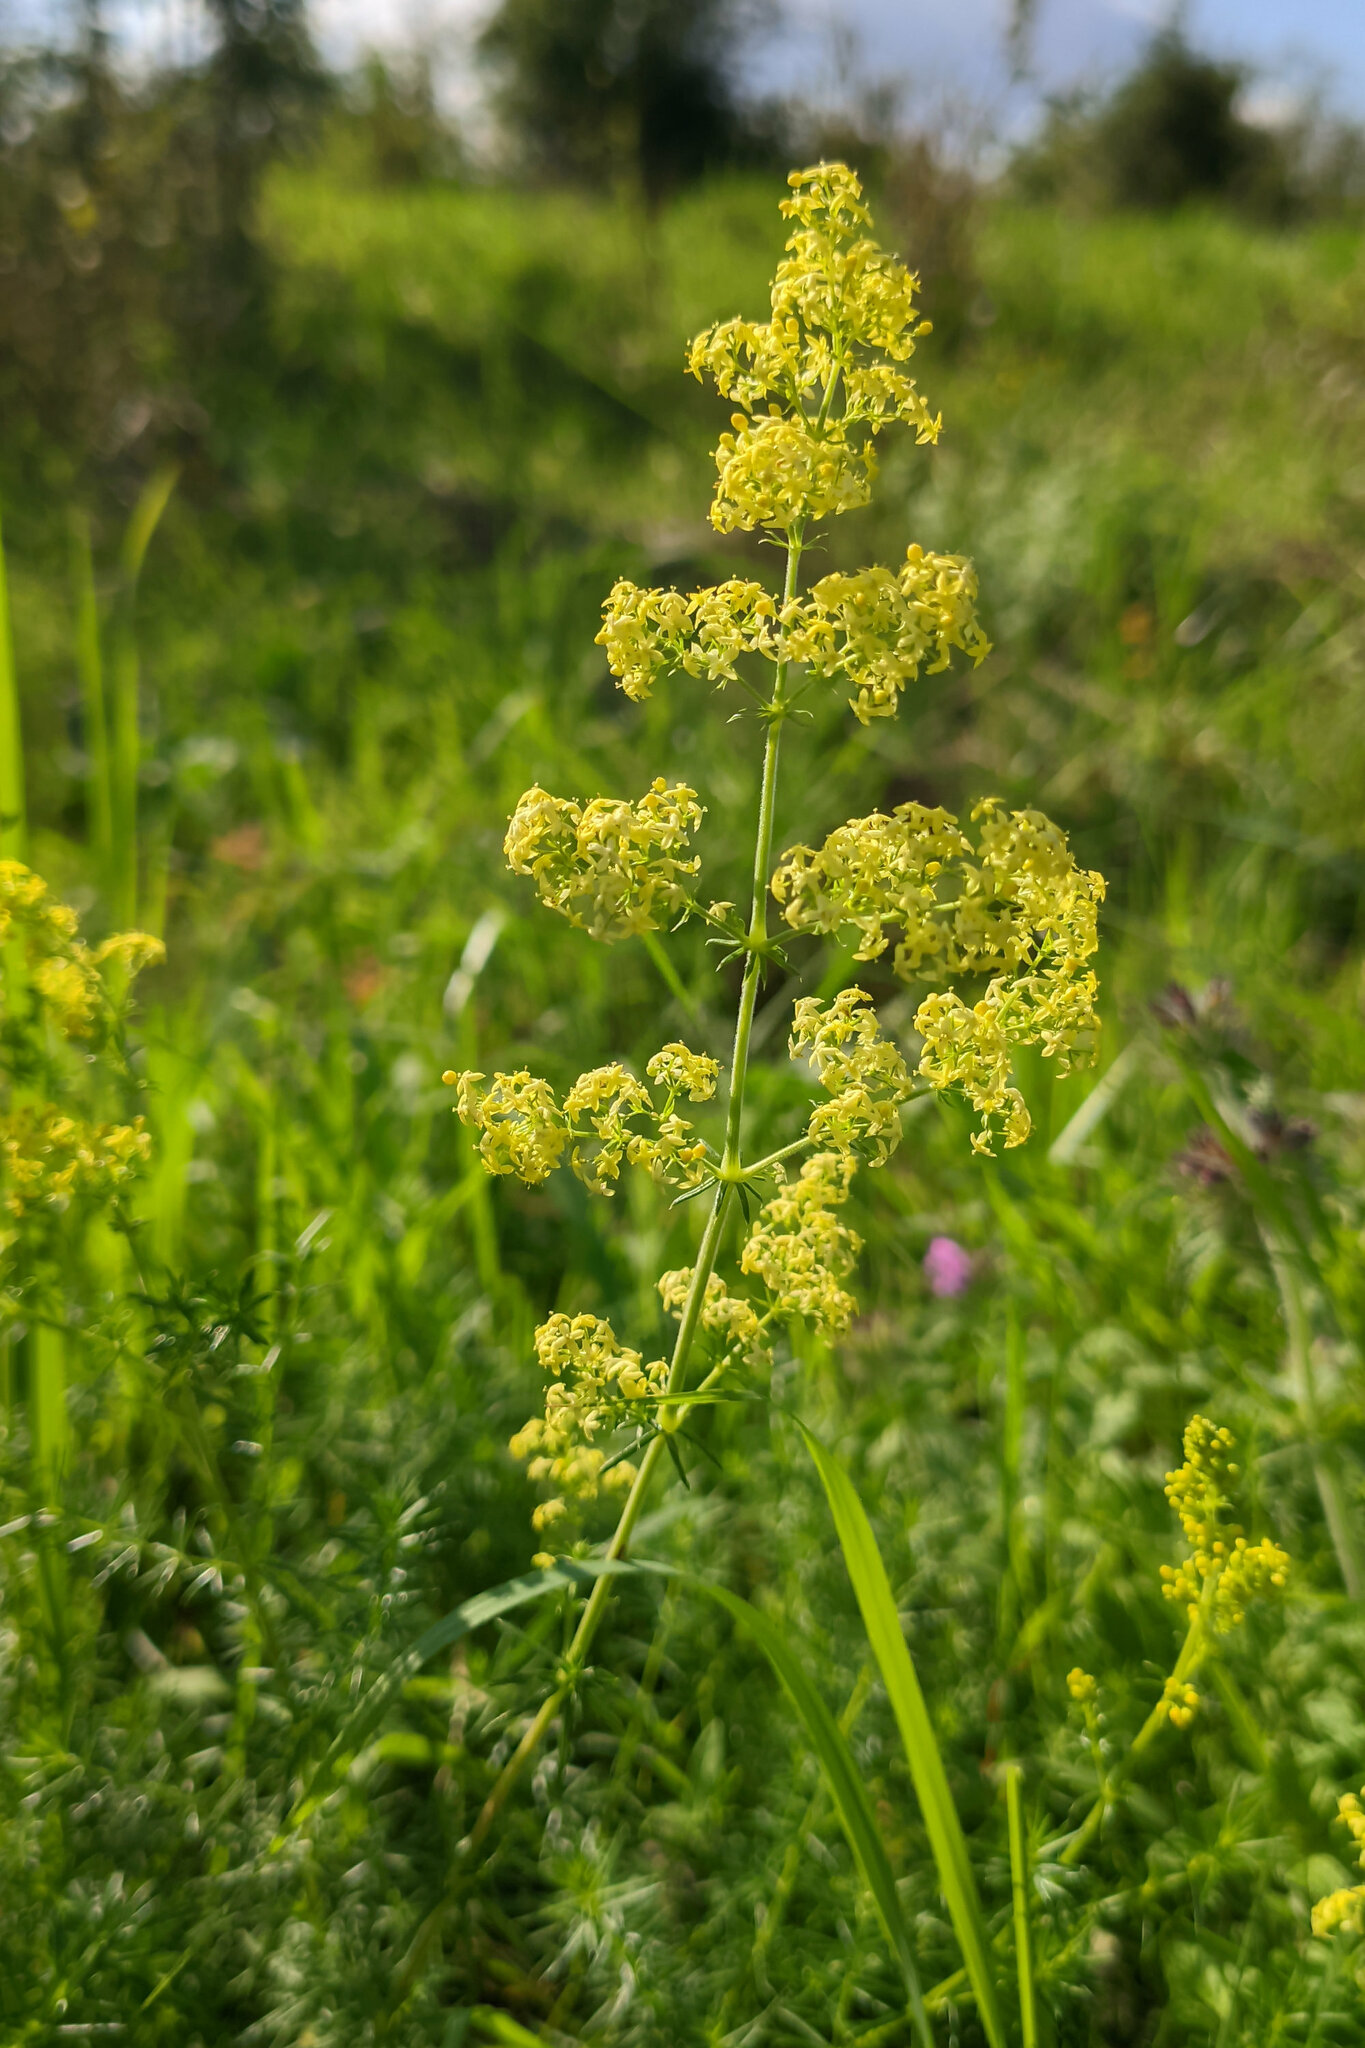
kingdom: Plantae
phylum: Tracheophyta
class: Magnoliopsida
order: Gentianales
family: Rubiaceae
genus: Galium
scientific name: Galium verum
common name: Lady's bedstraw
